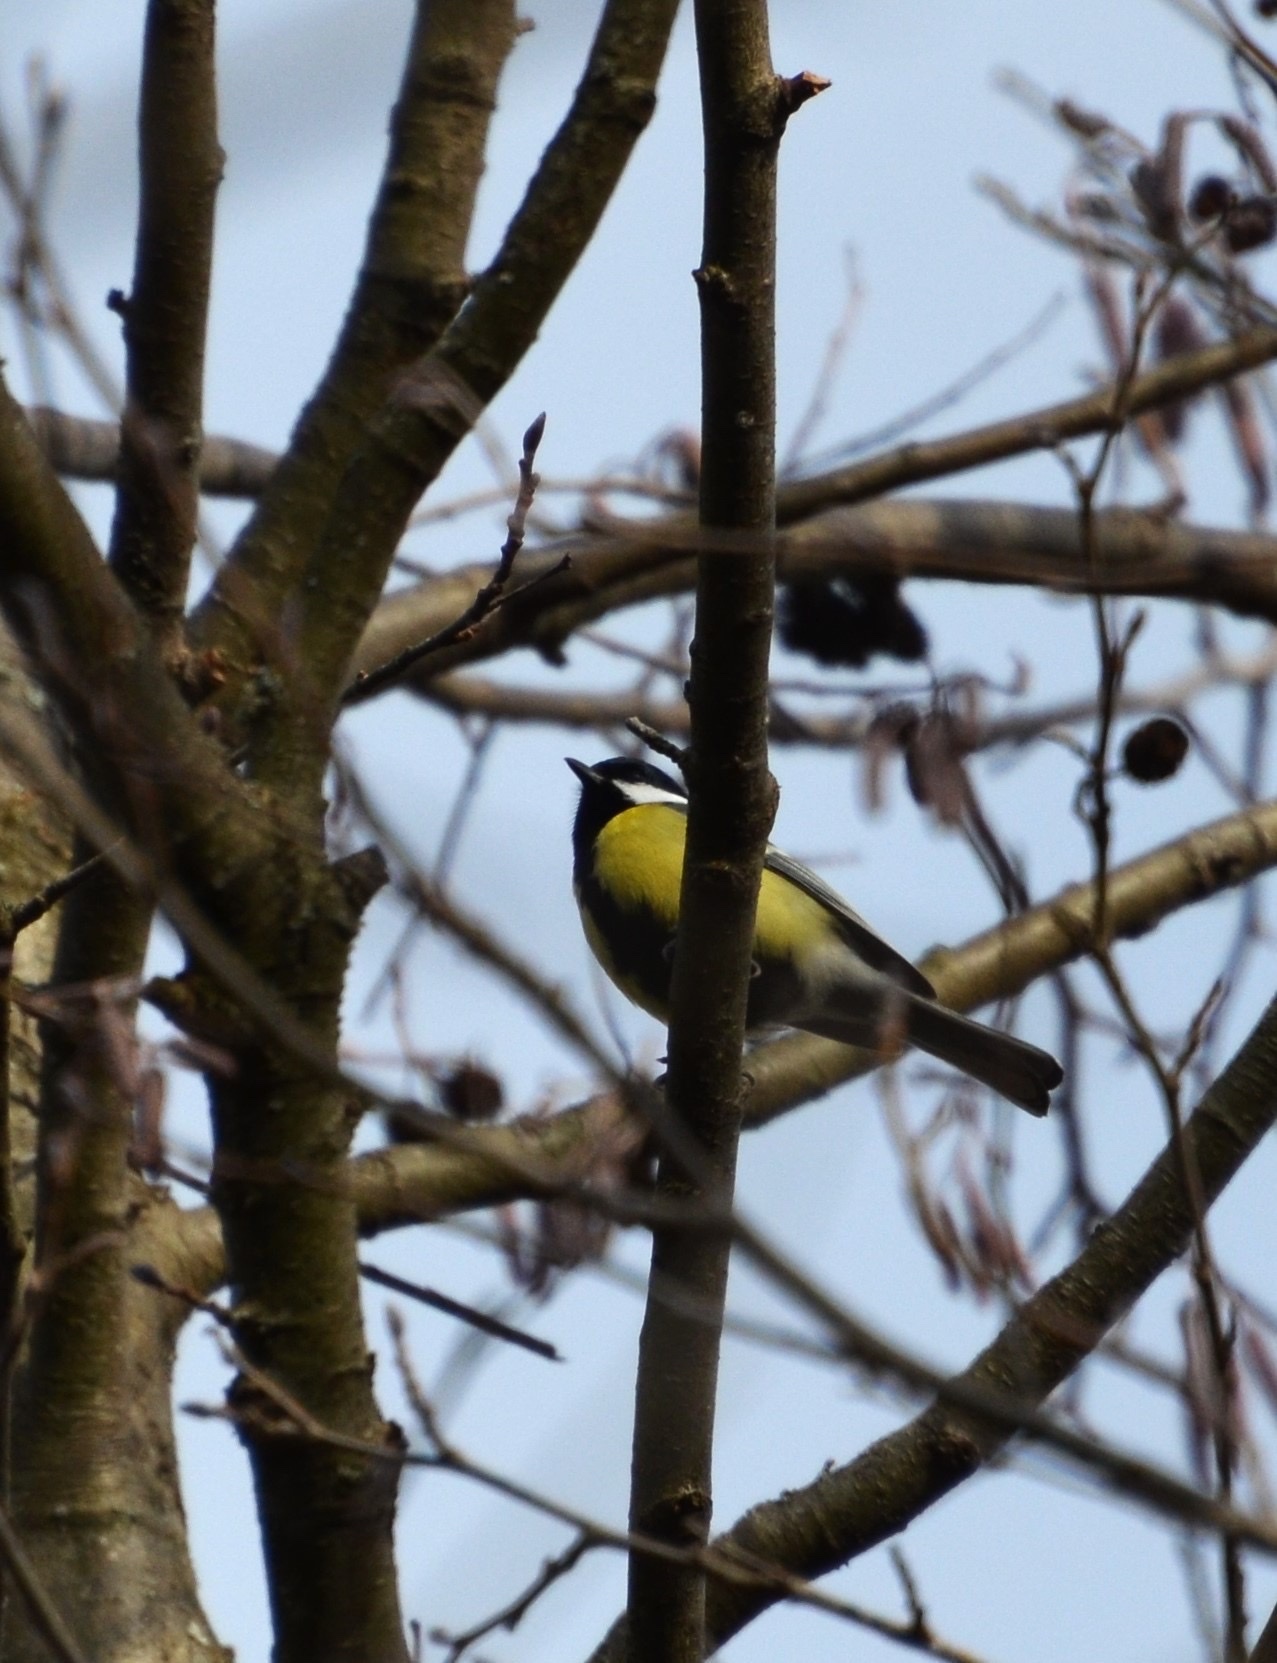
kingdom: Animalia
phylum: Chordata
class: Aves
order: Passeriformes
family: Paridae
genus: Parus
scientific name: Parus major
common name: Great tit
